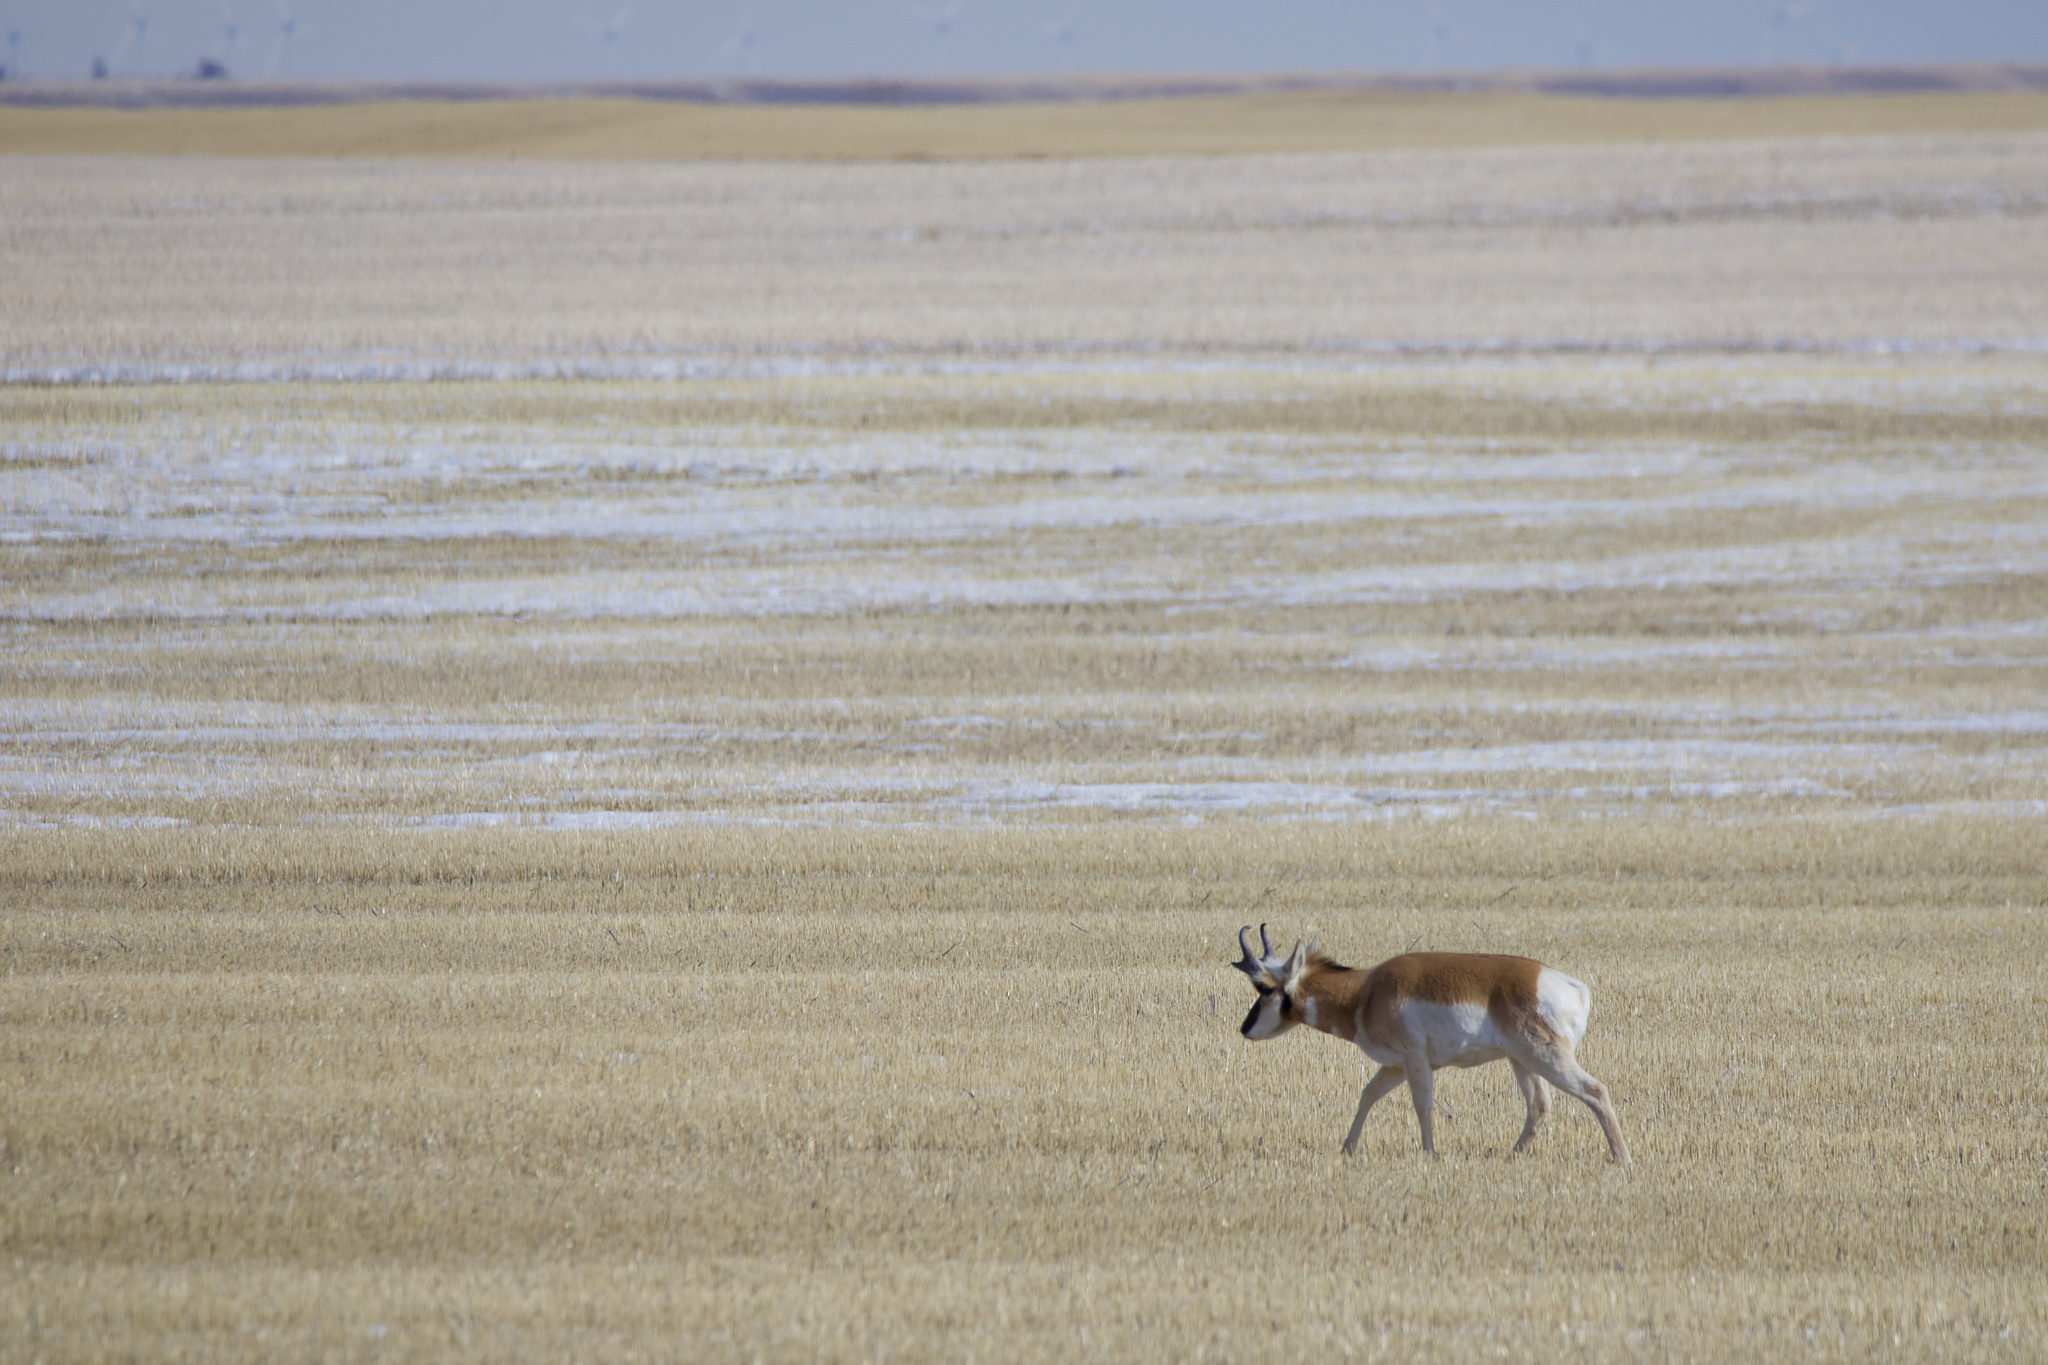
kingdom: Animalia
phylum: Chordata
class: Mammalia
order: Artiodactyla
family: Antilocapridae
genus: Antilocapra
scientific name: Antilocapra americana
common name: Pronghorn
